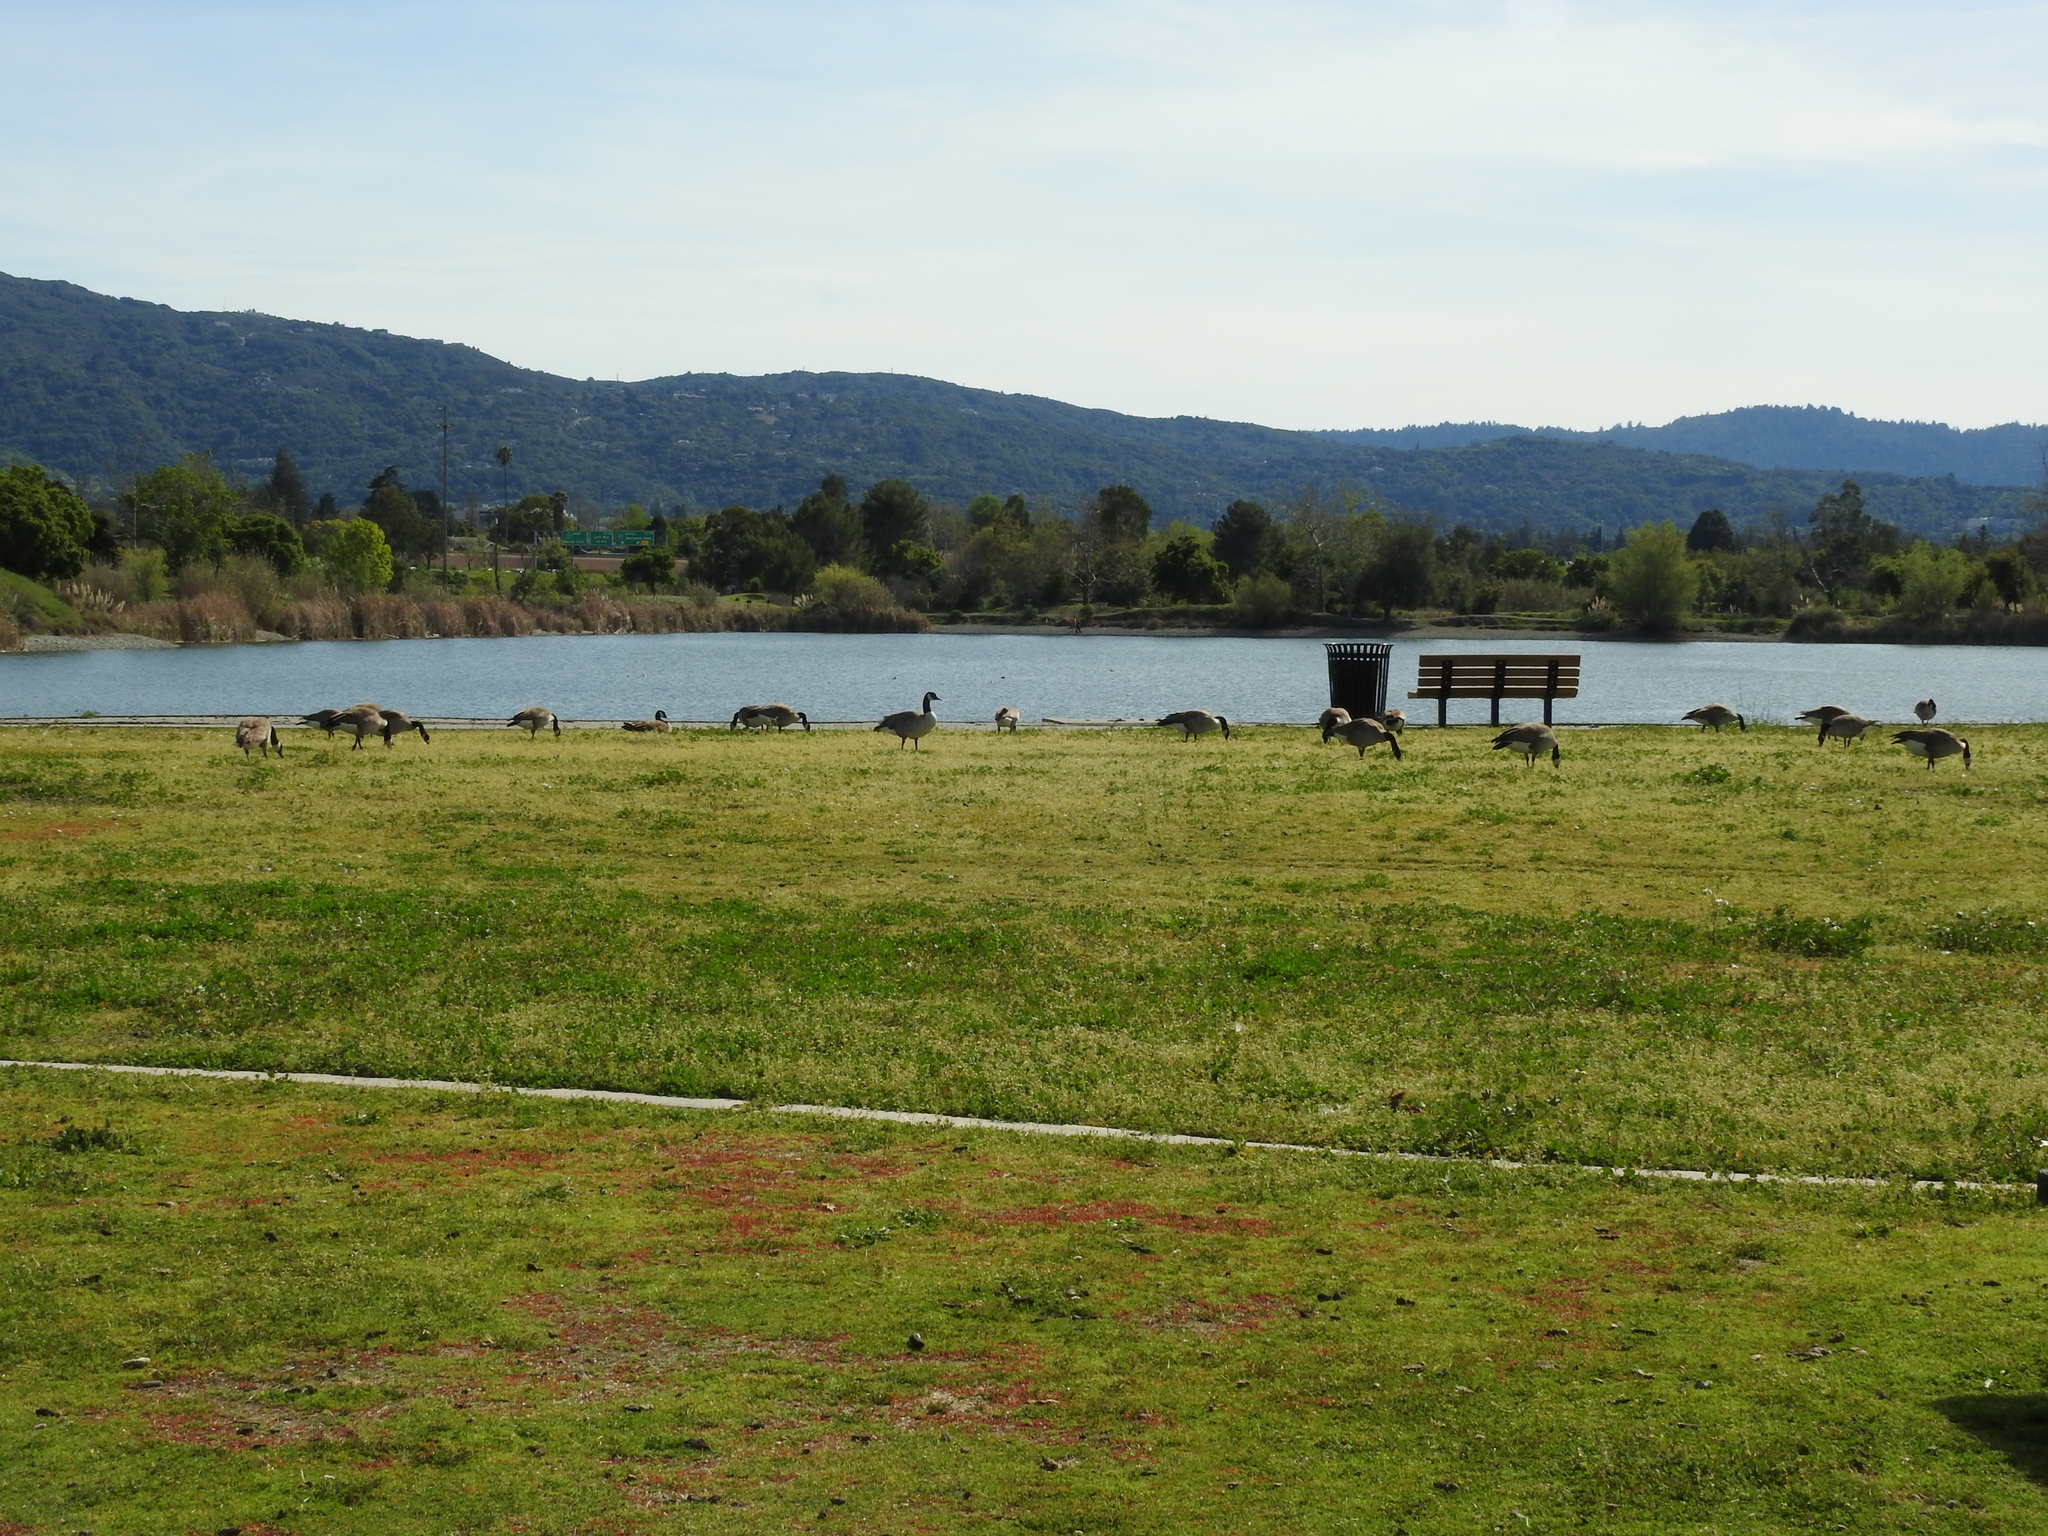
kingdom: Animalia
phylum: Chordata
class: Aves
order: Anseriformes
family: Anatidae
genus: Branta
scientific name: Branta canadensis
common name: Canada goose
